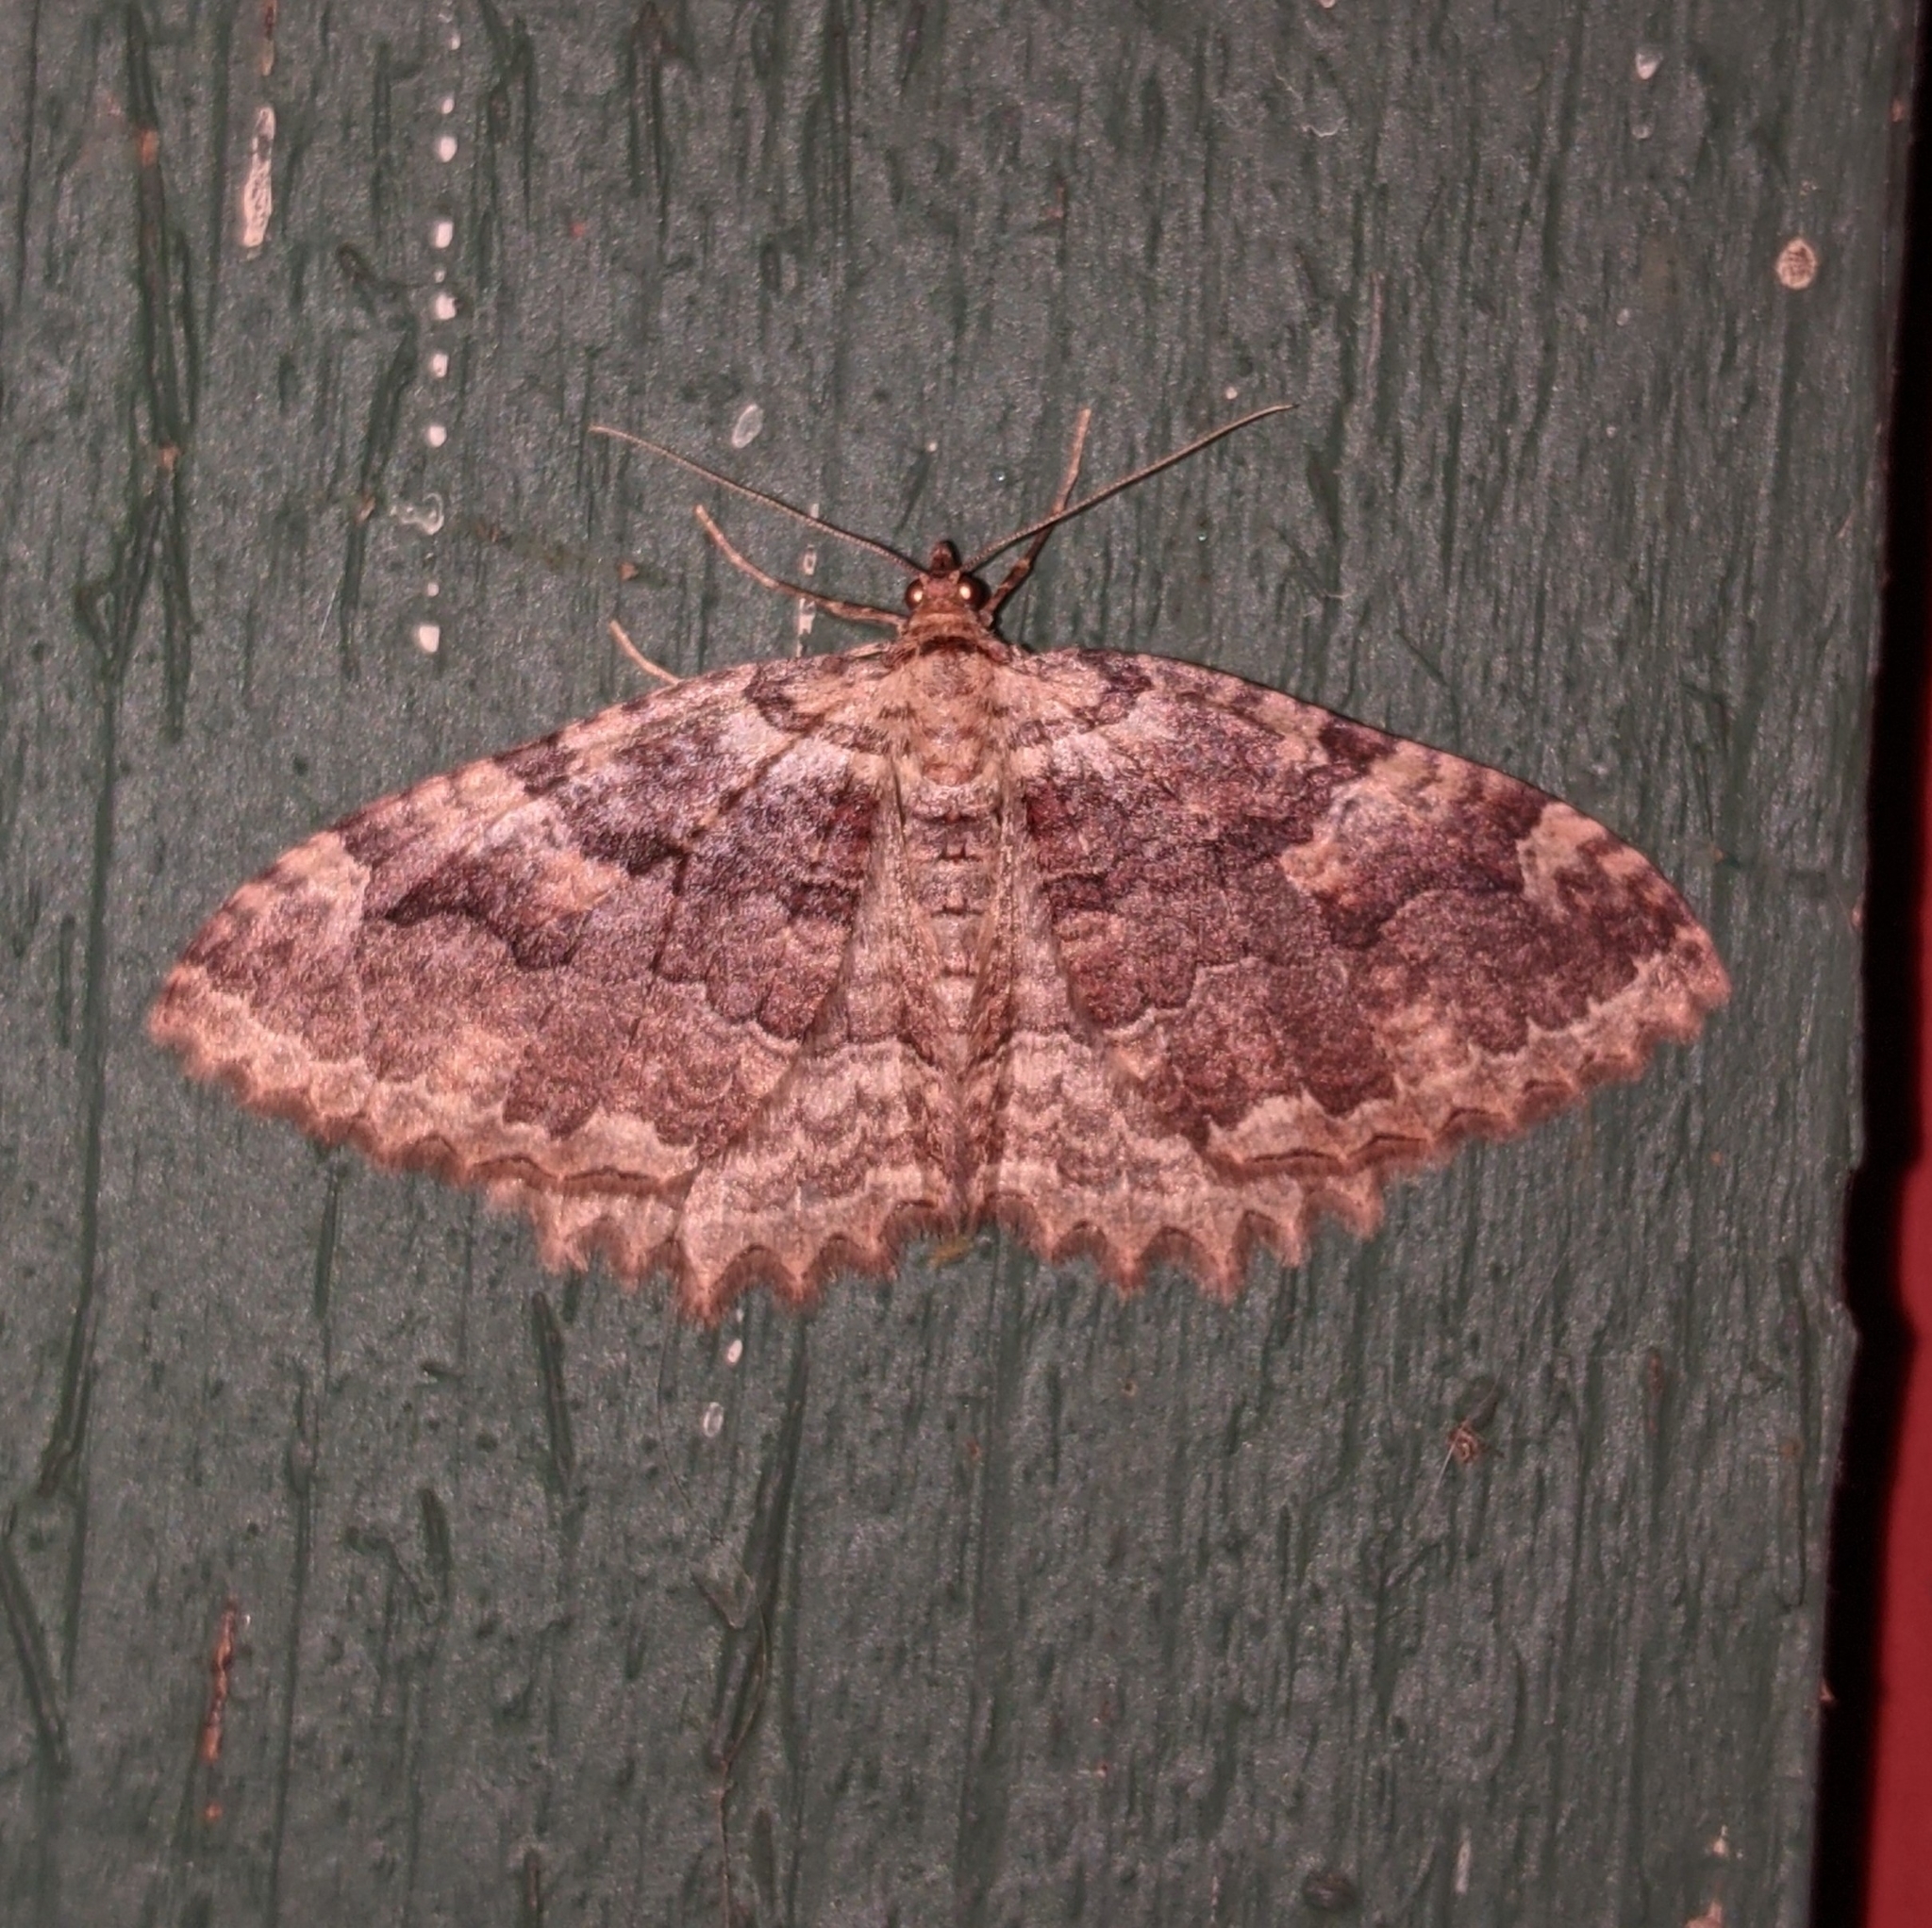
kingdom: Animalia
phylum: Arthropoda
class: Insecta
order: Lepidoptera
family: Geometridae
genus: Triphosa
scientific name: Triphosa haesitata
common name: Tissue moth
